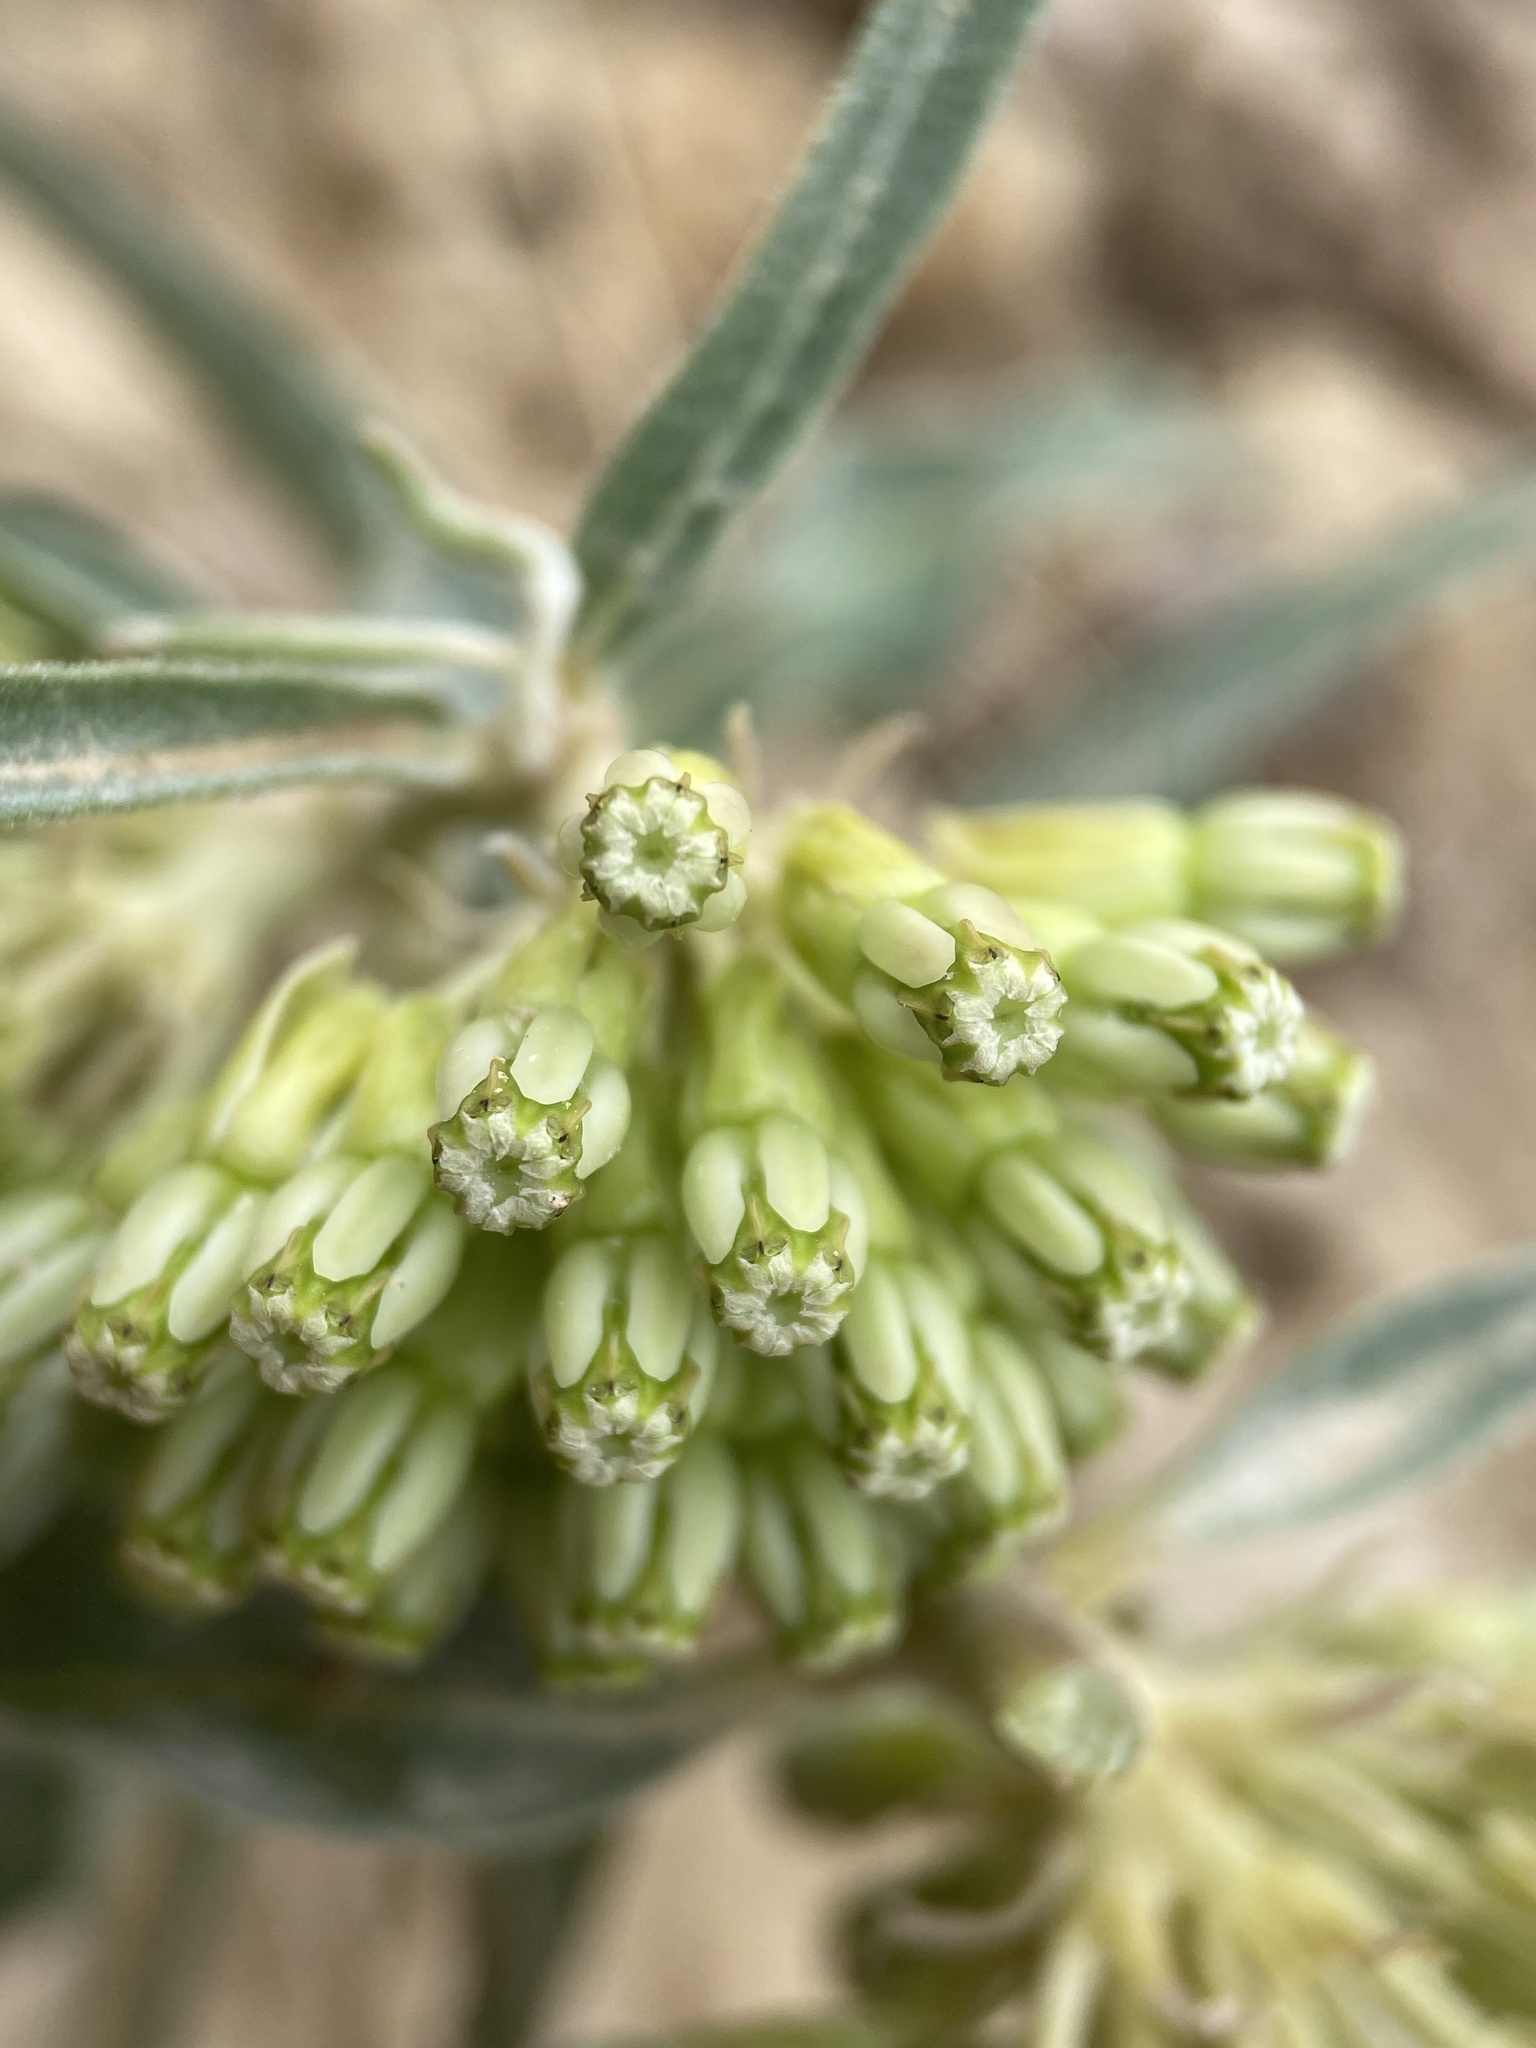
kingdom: Plantae
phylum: Tracheophyta
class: Magnoliopsida
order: Gentianales
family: Apocynaceae
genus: Asclepias
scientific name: Asclepias viridiflora
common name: Green comet milkweed
